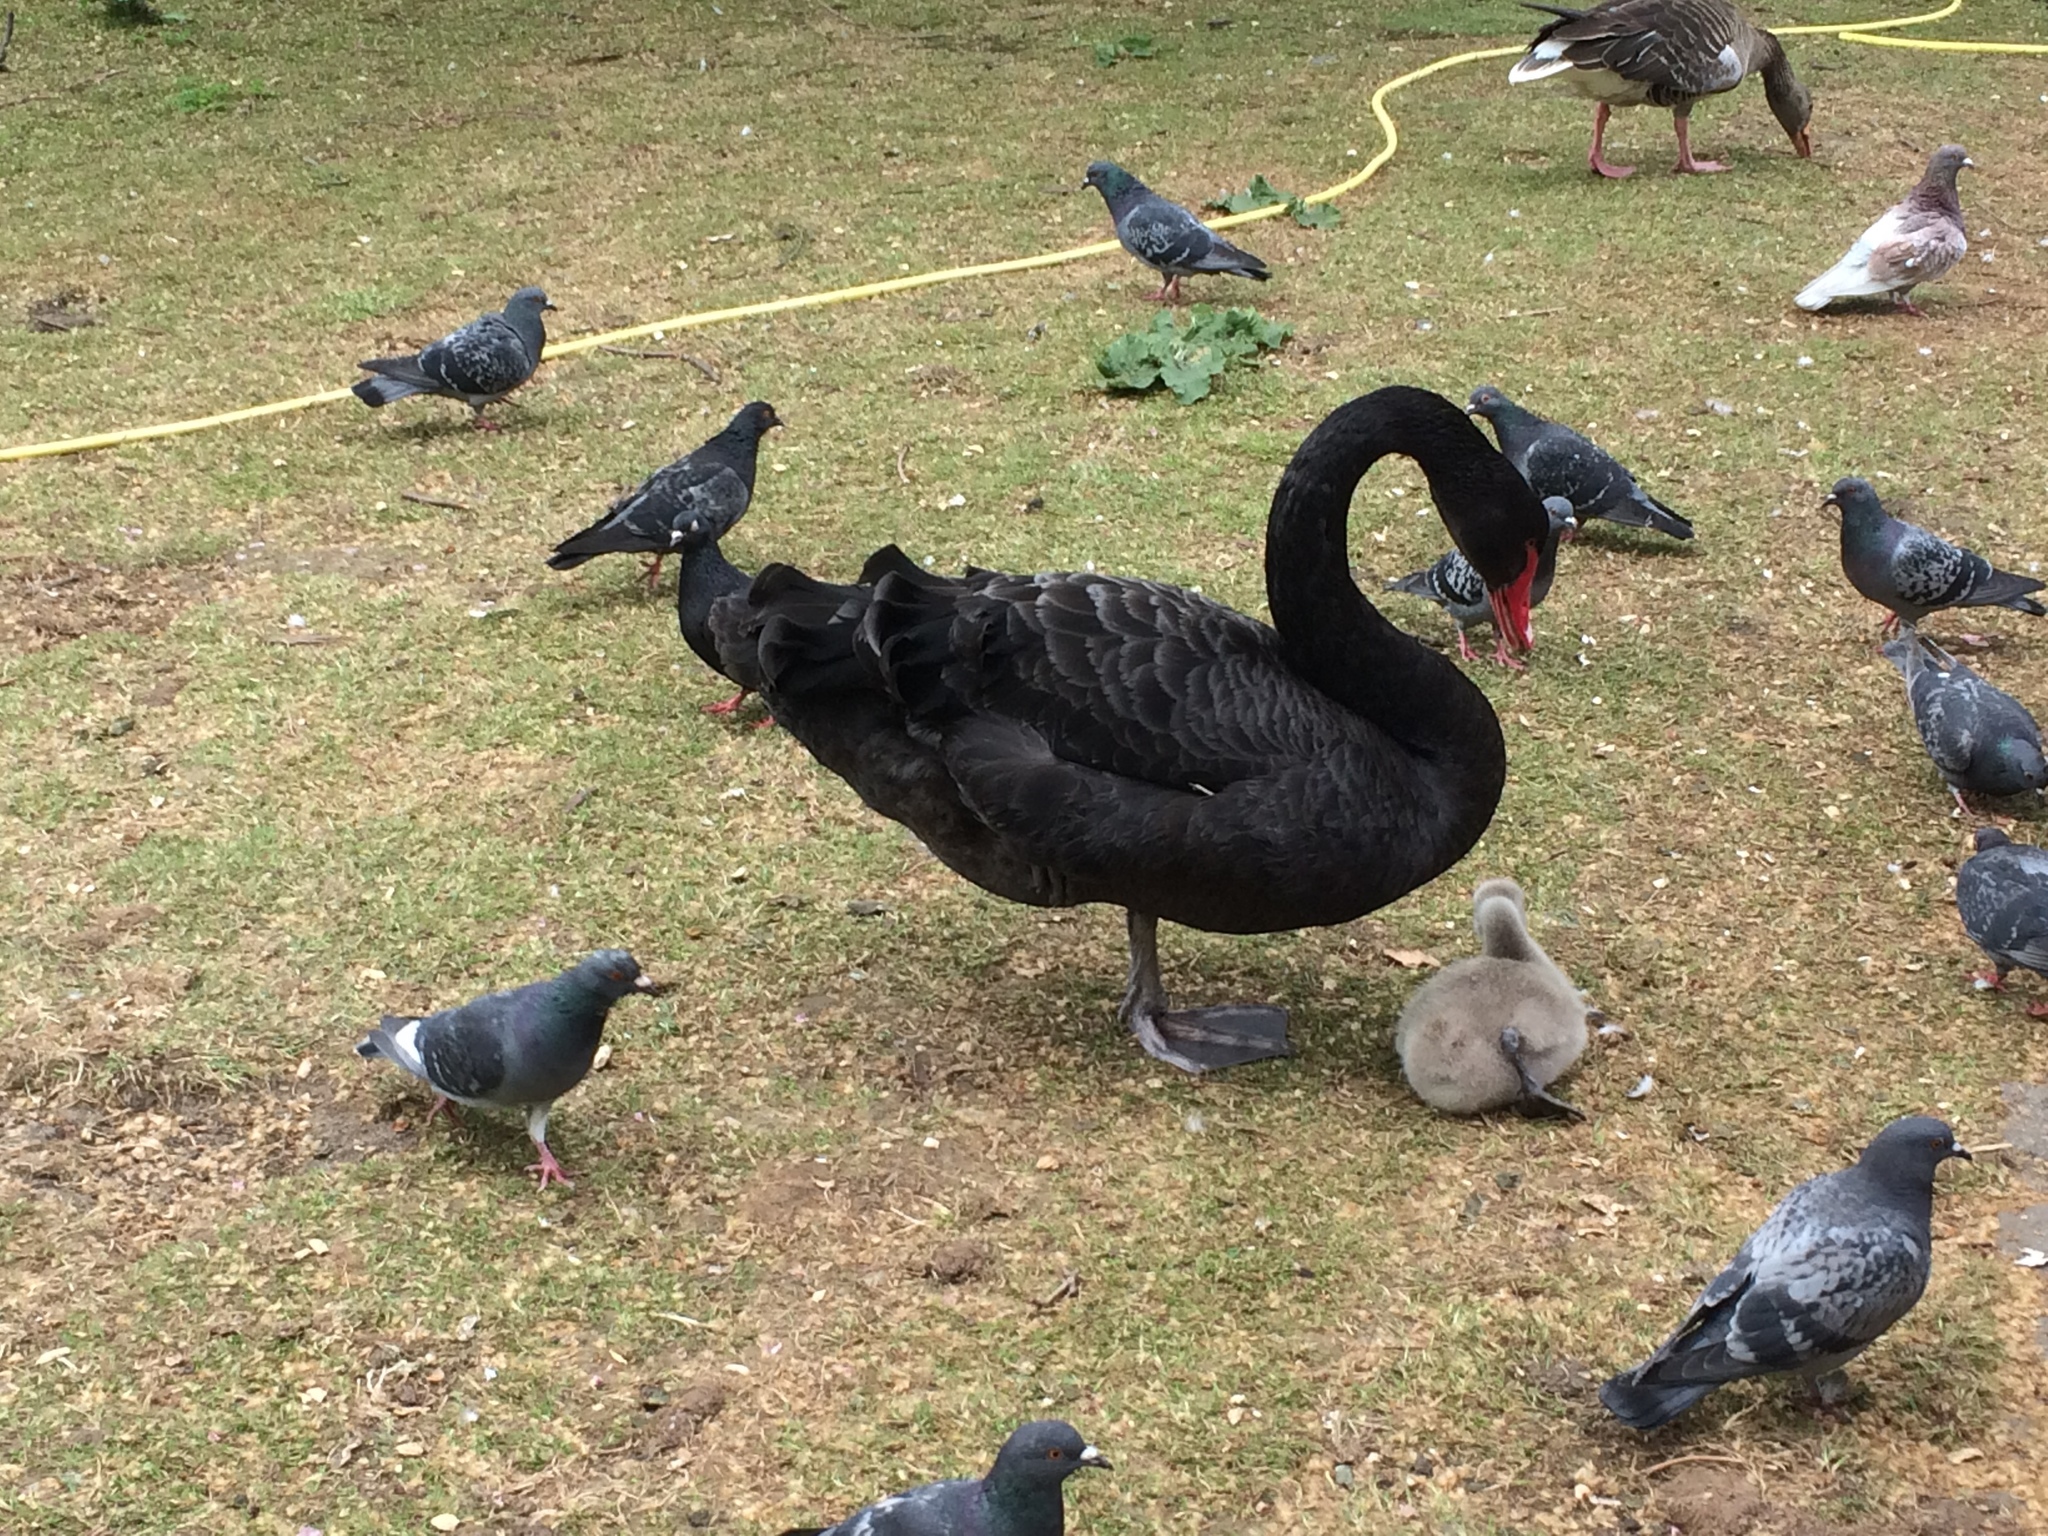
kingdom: Animalia
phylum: Chordata
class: Aves
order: Anseriformes
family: Anatidae
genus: Cygnus
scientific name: Cygnus atratus
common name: Black swan
